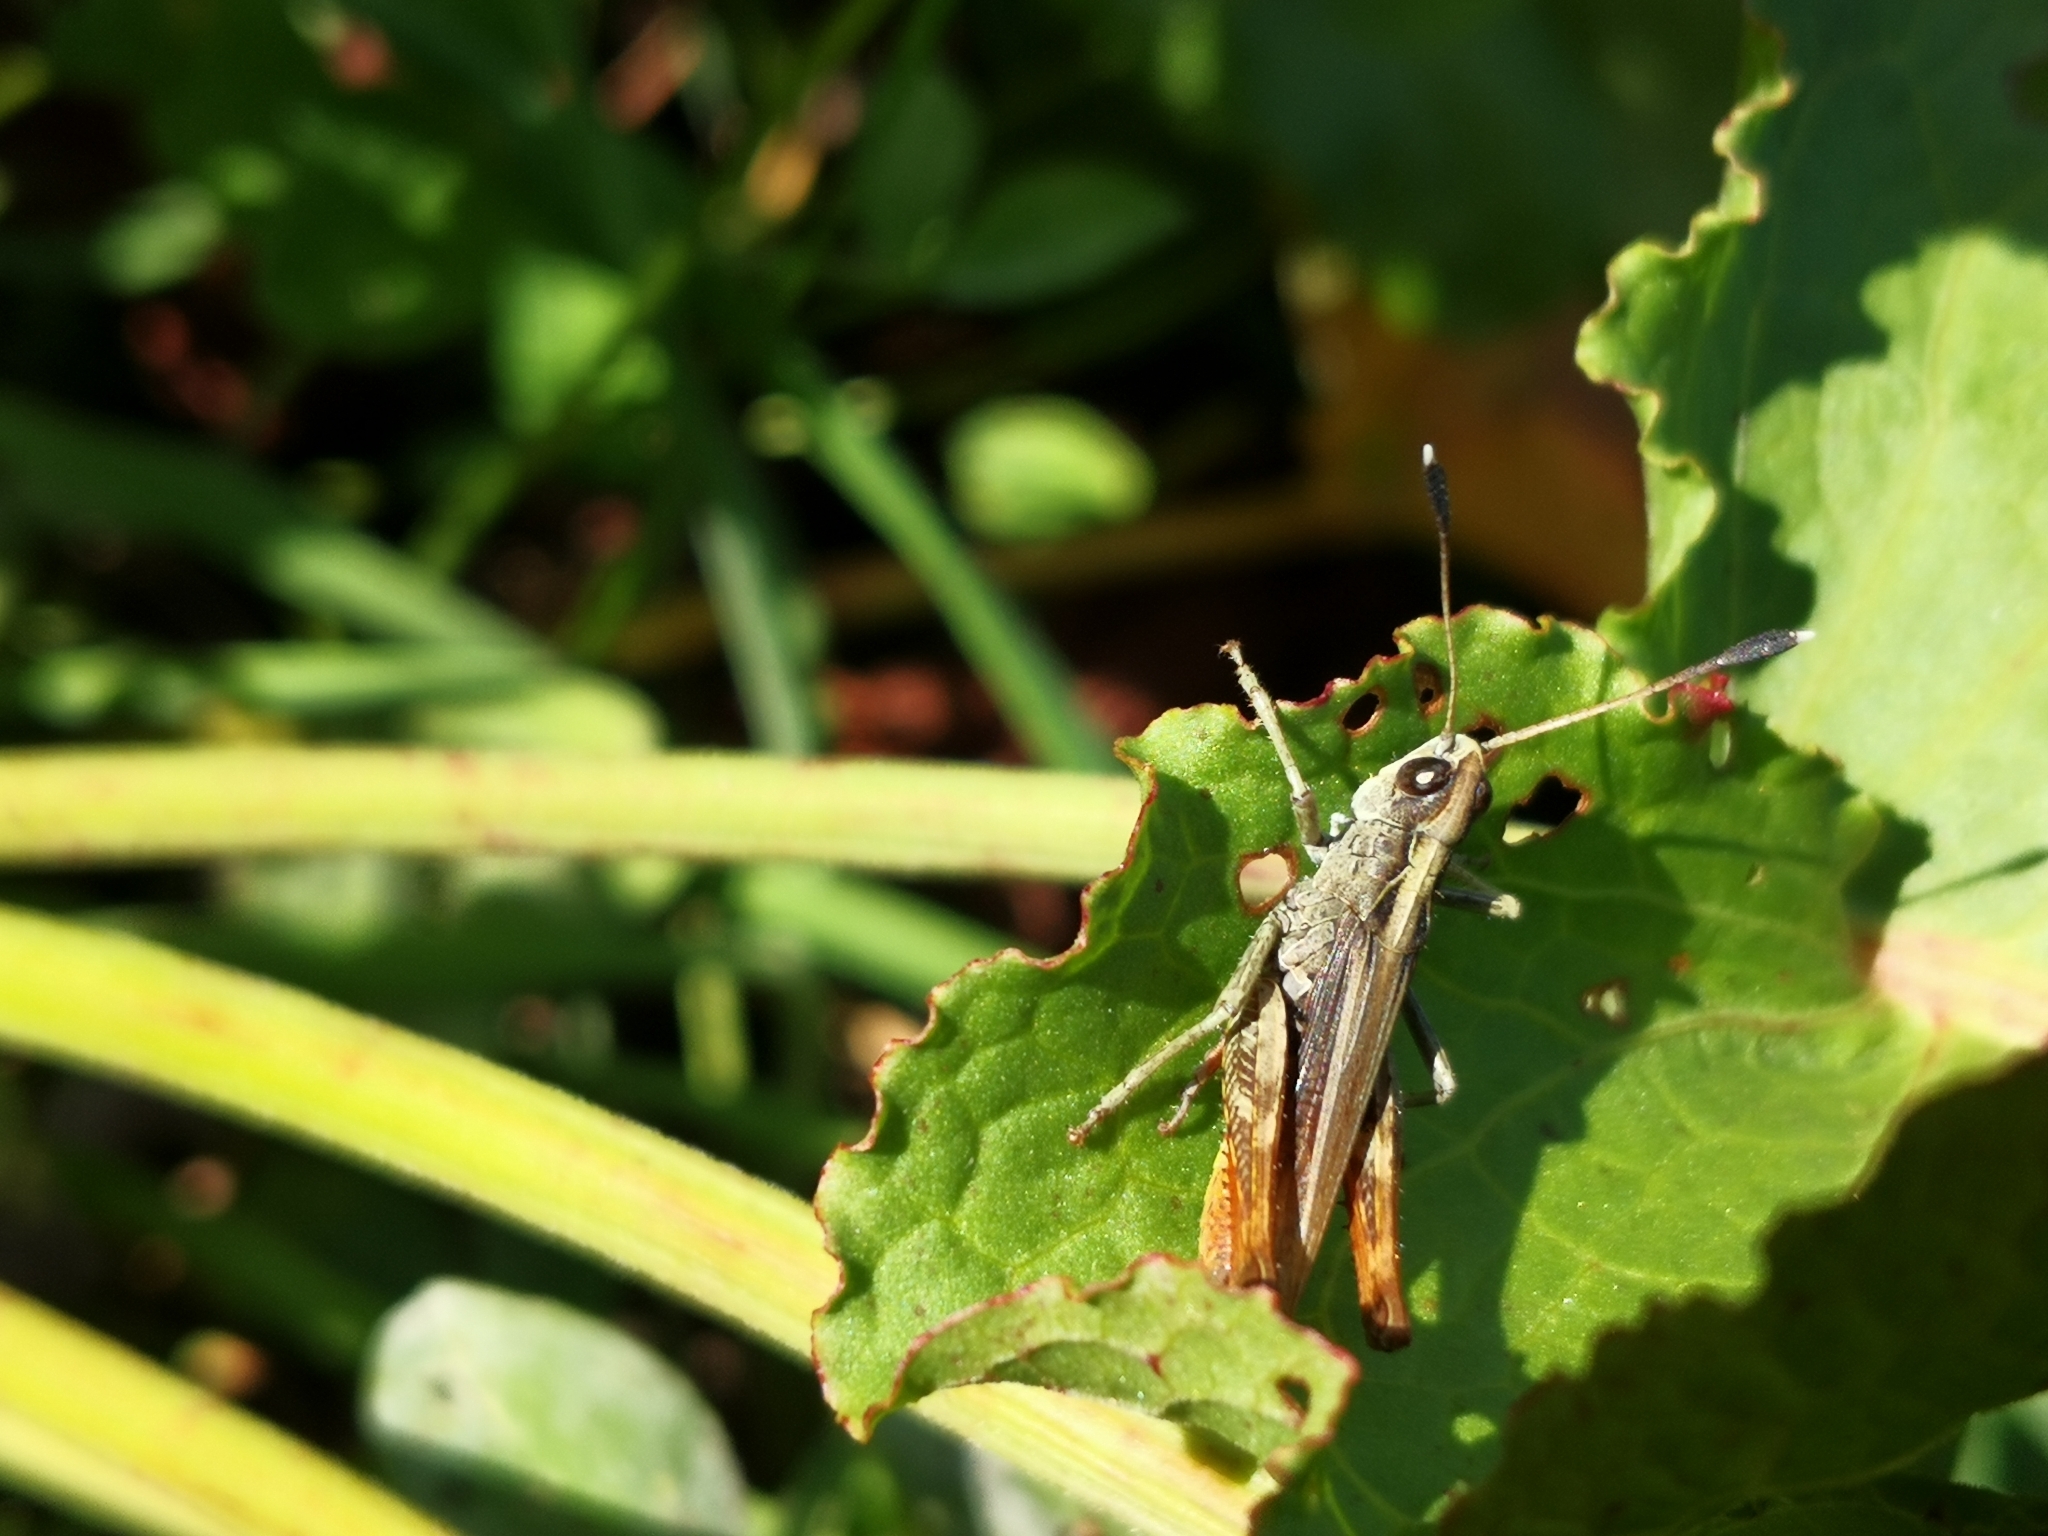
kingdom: Animalia
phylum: Arthropoda
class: Insecta
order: Orthoptera
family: Acrididae
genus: Gomphocerippus
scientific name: Gomphocerippus rufus
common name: Rufous grasshopper
